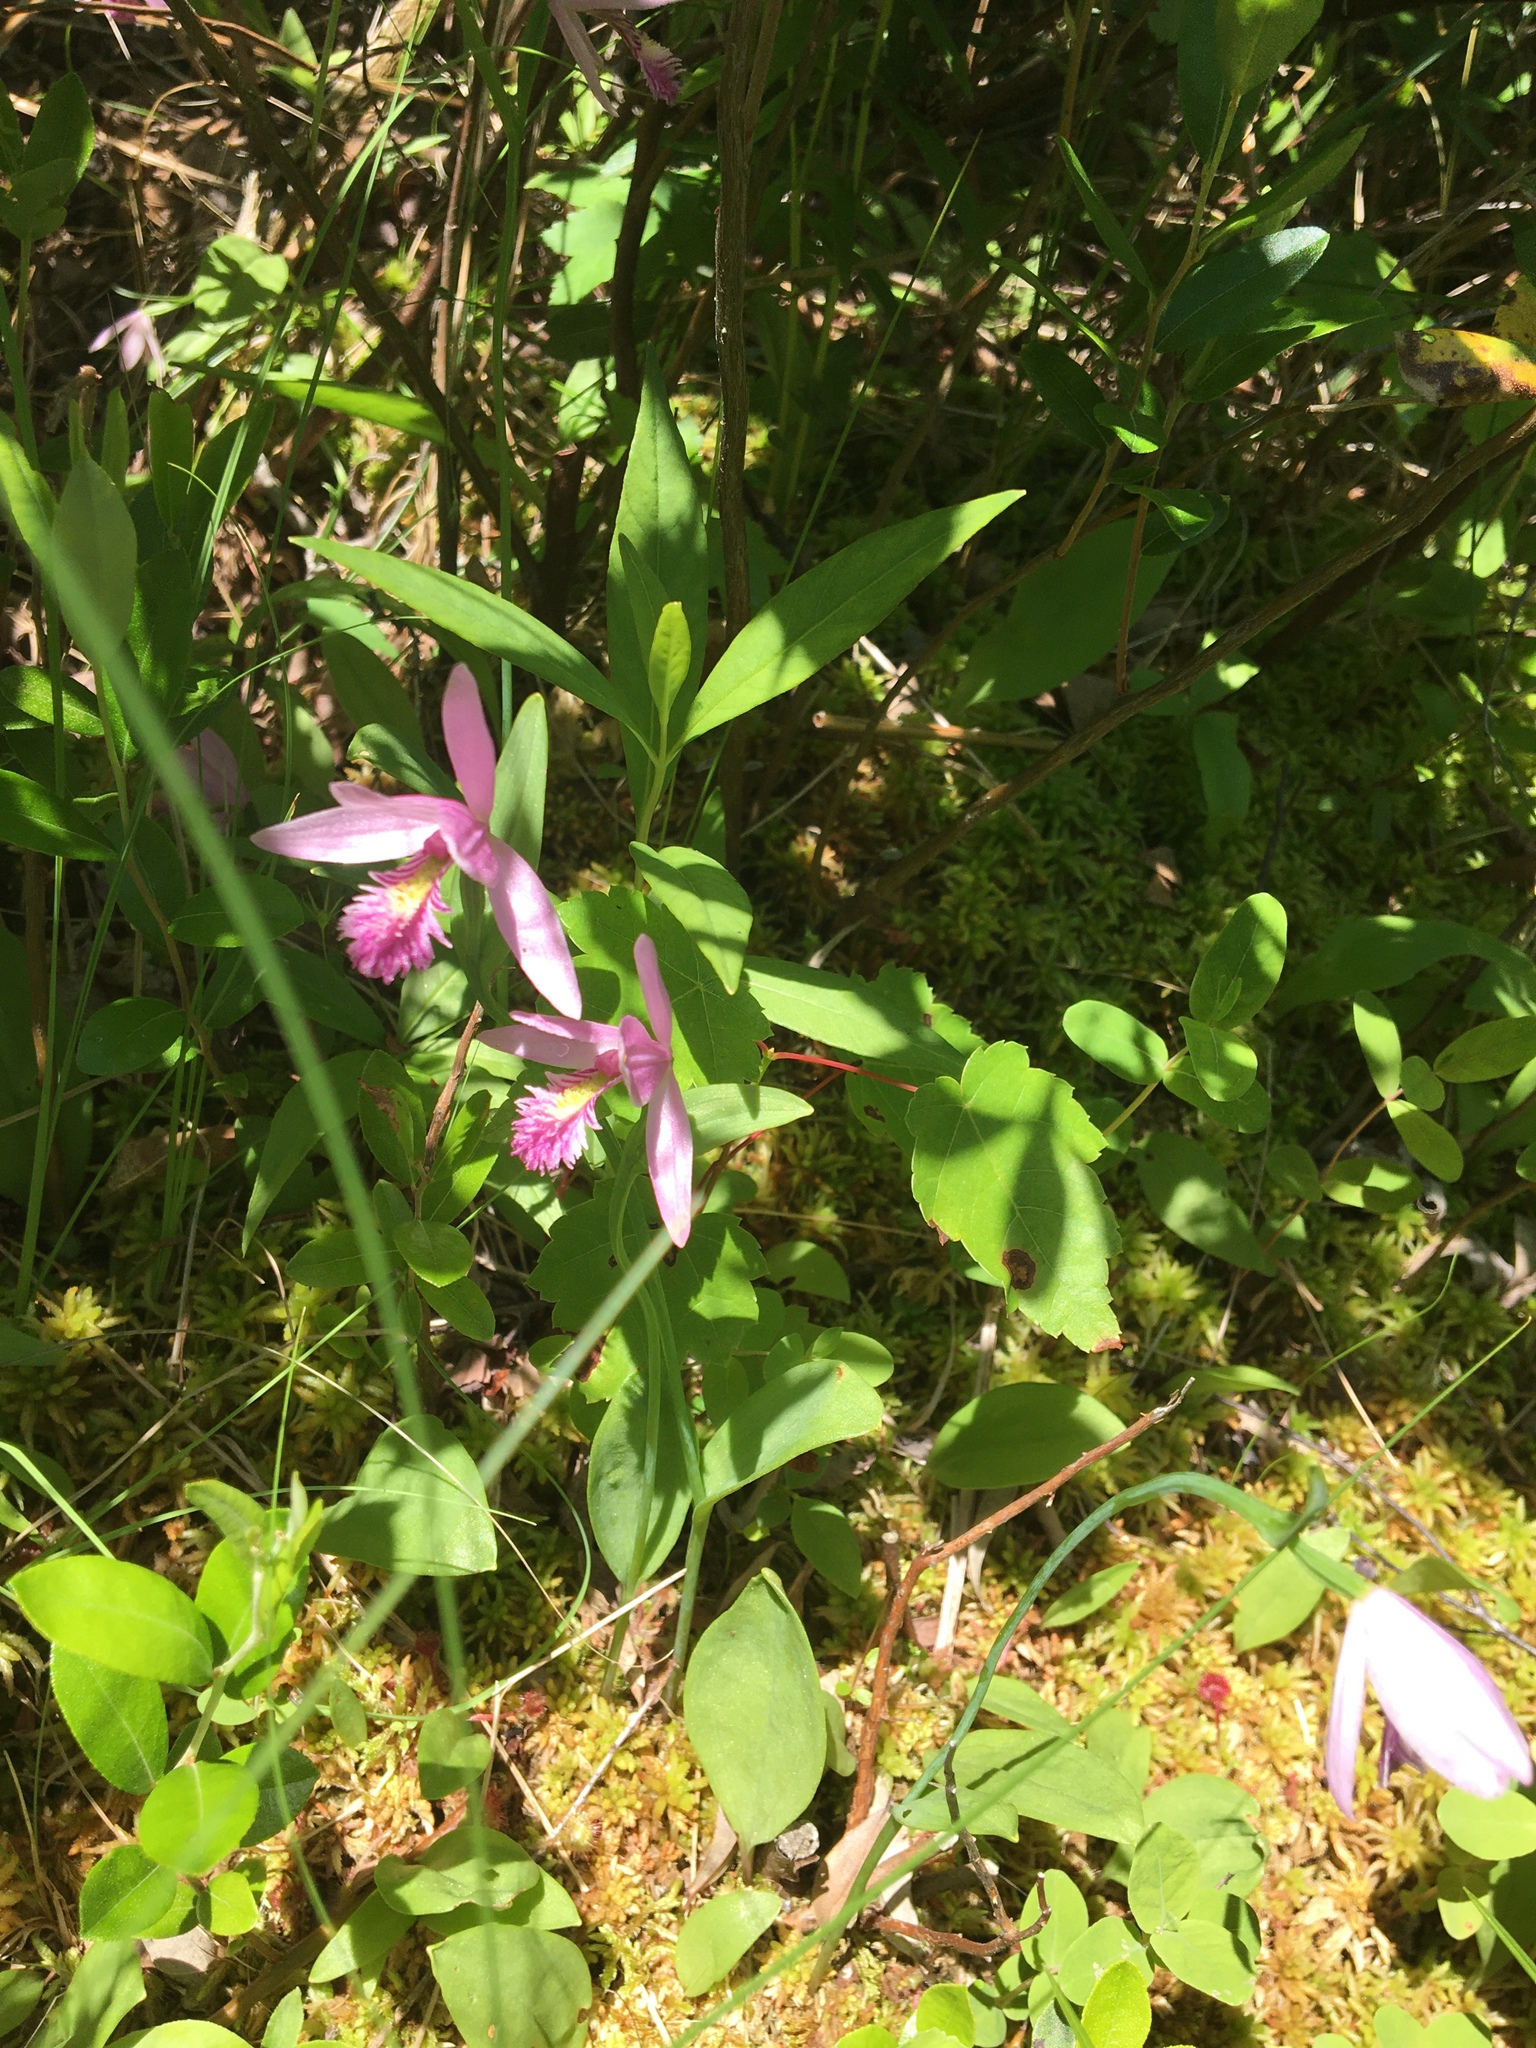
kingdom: Plantae
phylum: Tracheophyta
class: Liliopsida
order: Asparagales
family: Orchidaceae
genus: Pogonia
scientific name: Pogonia ophioglossoides
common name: Rose pogonia
